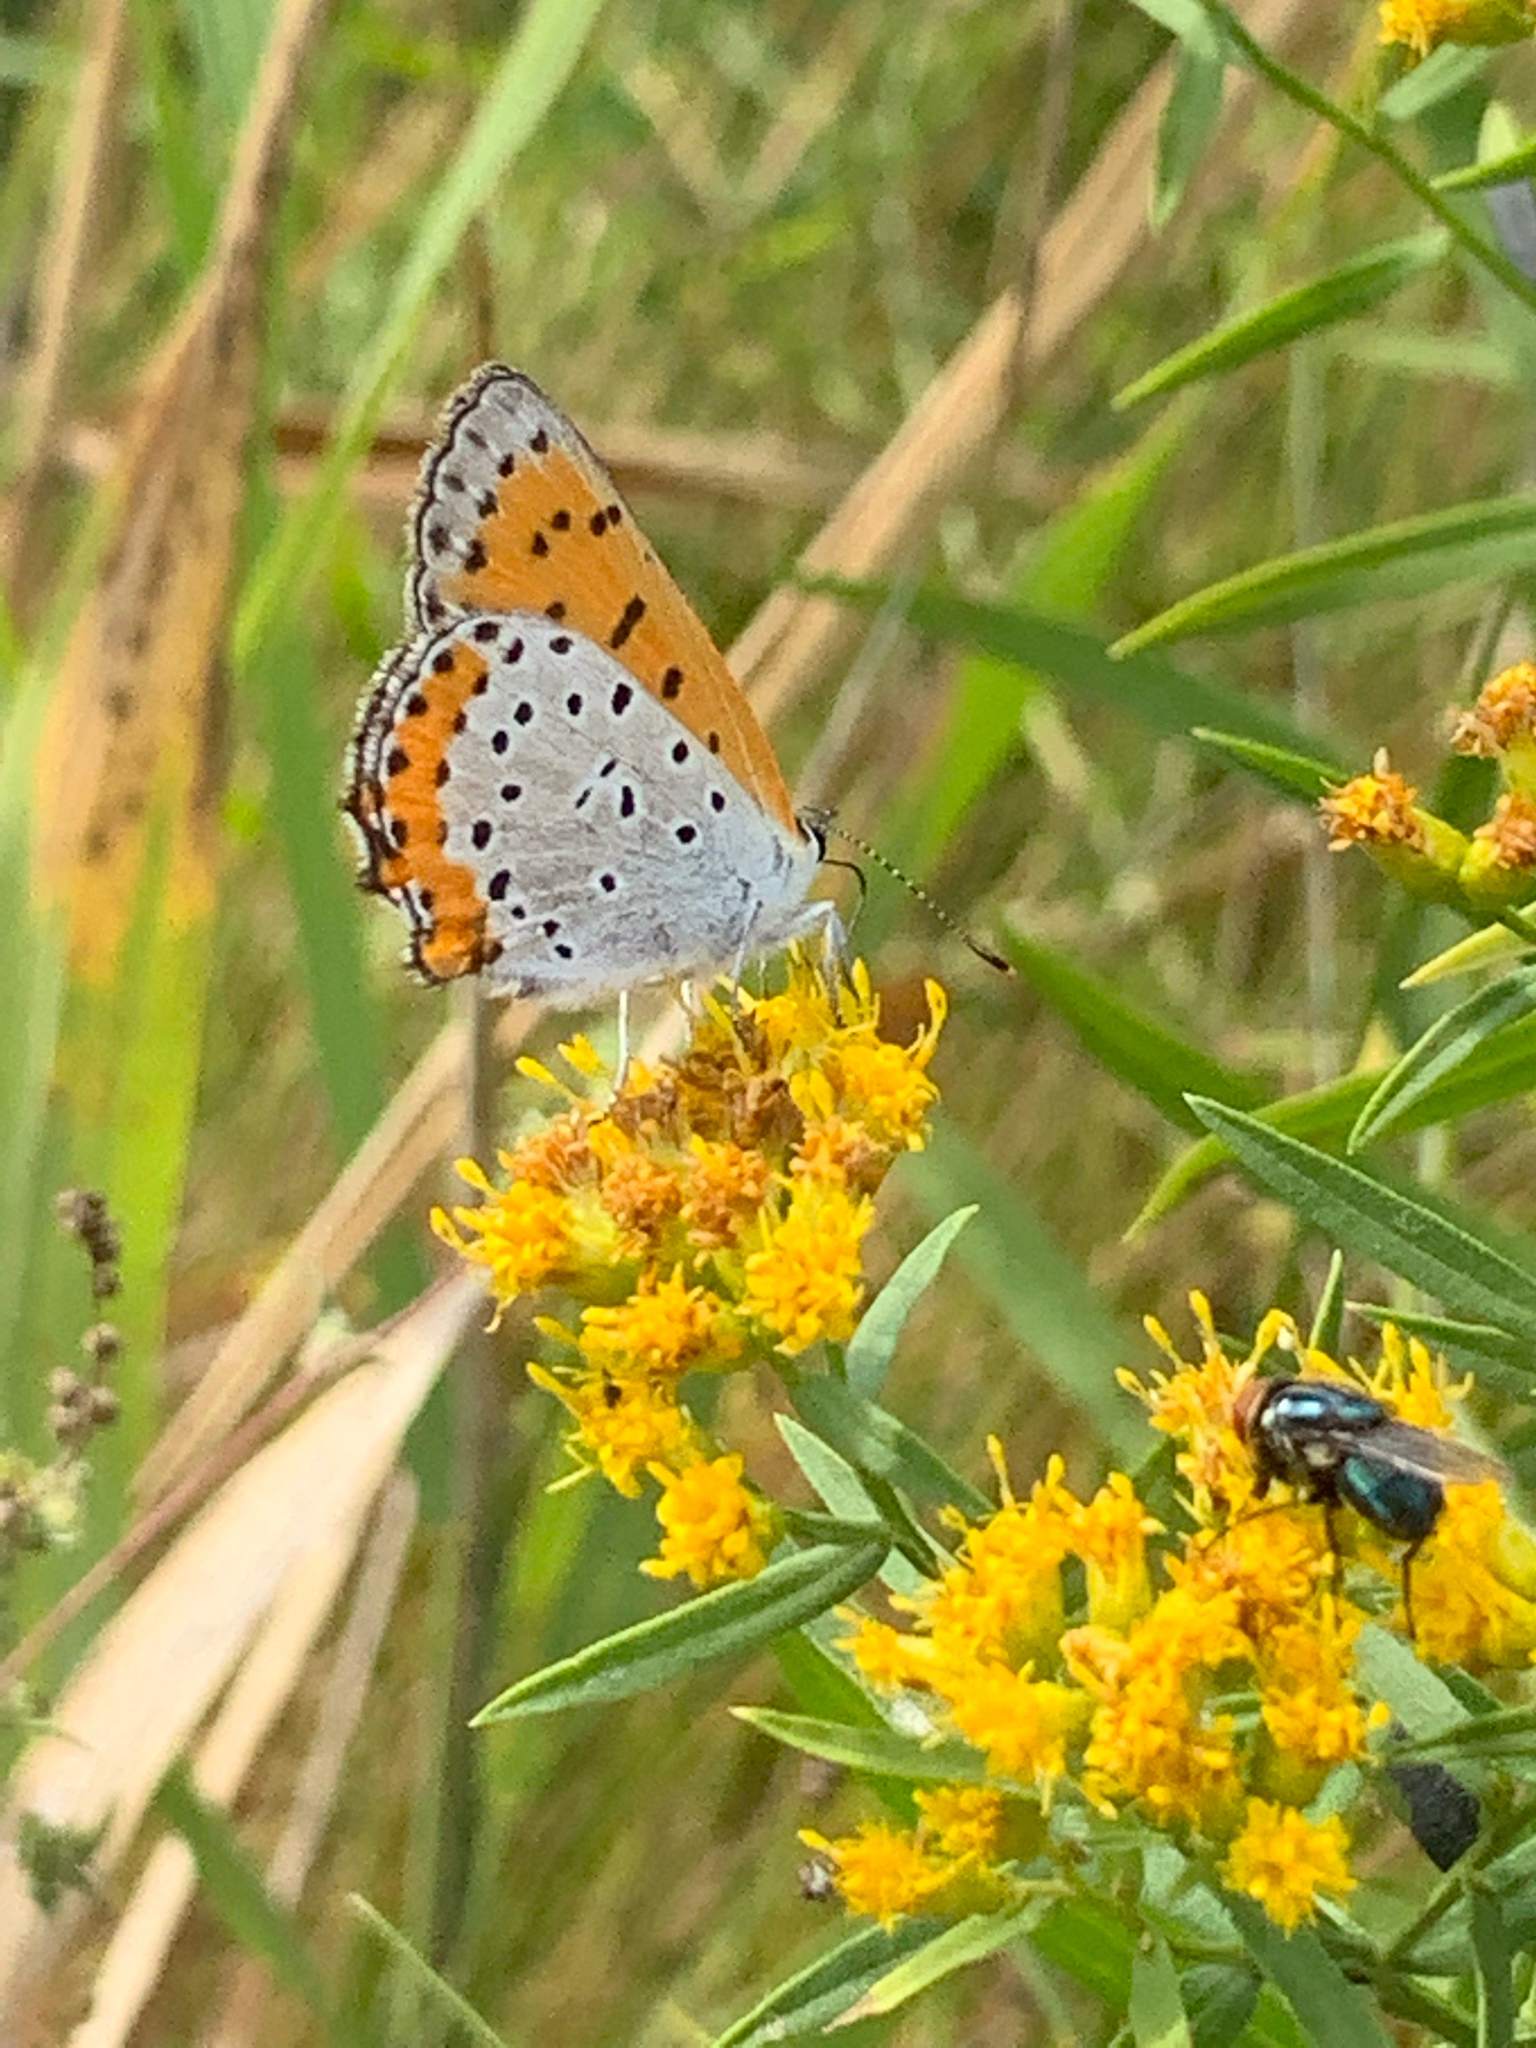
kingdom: Animalia
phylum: Arthropoda
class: Insecta
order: Lepidoptera
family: Lycaenidae
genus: Tharsalea
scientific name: Tharsalea hyllus
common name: Bronze copper
